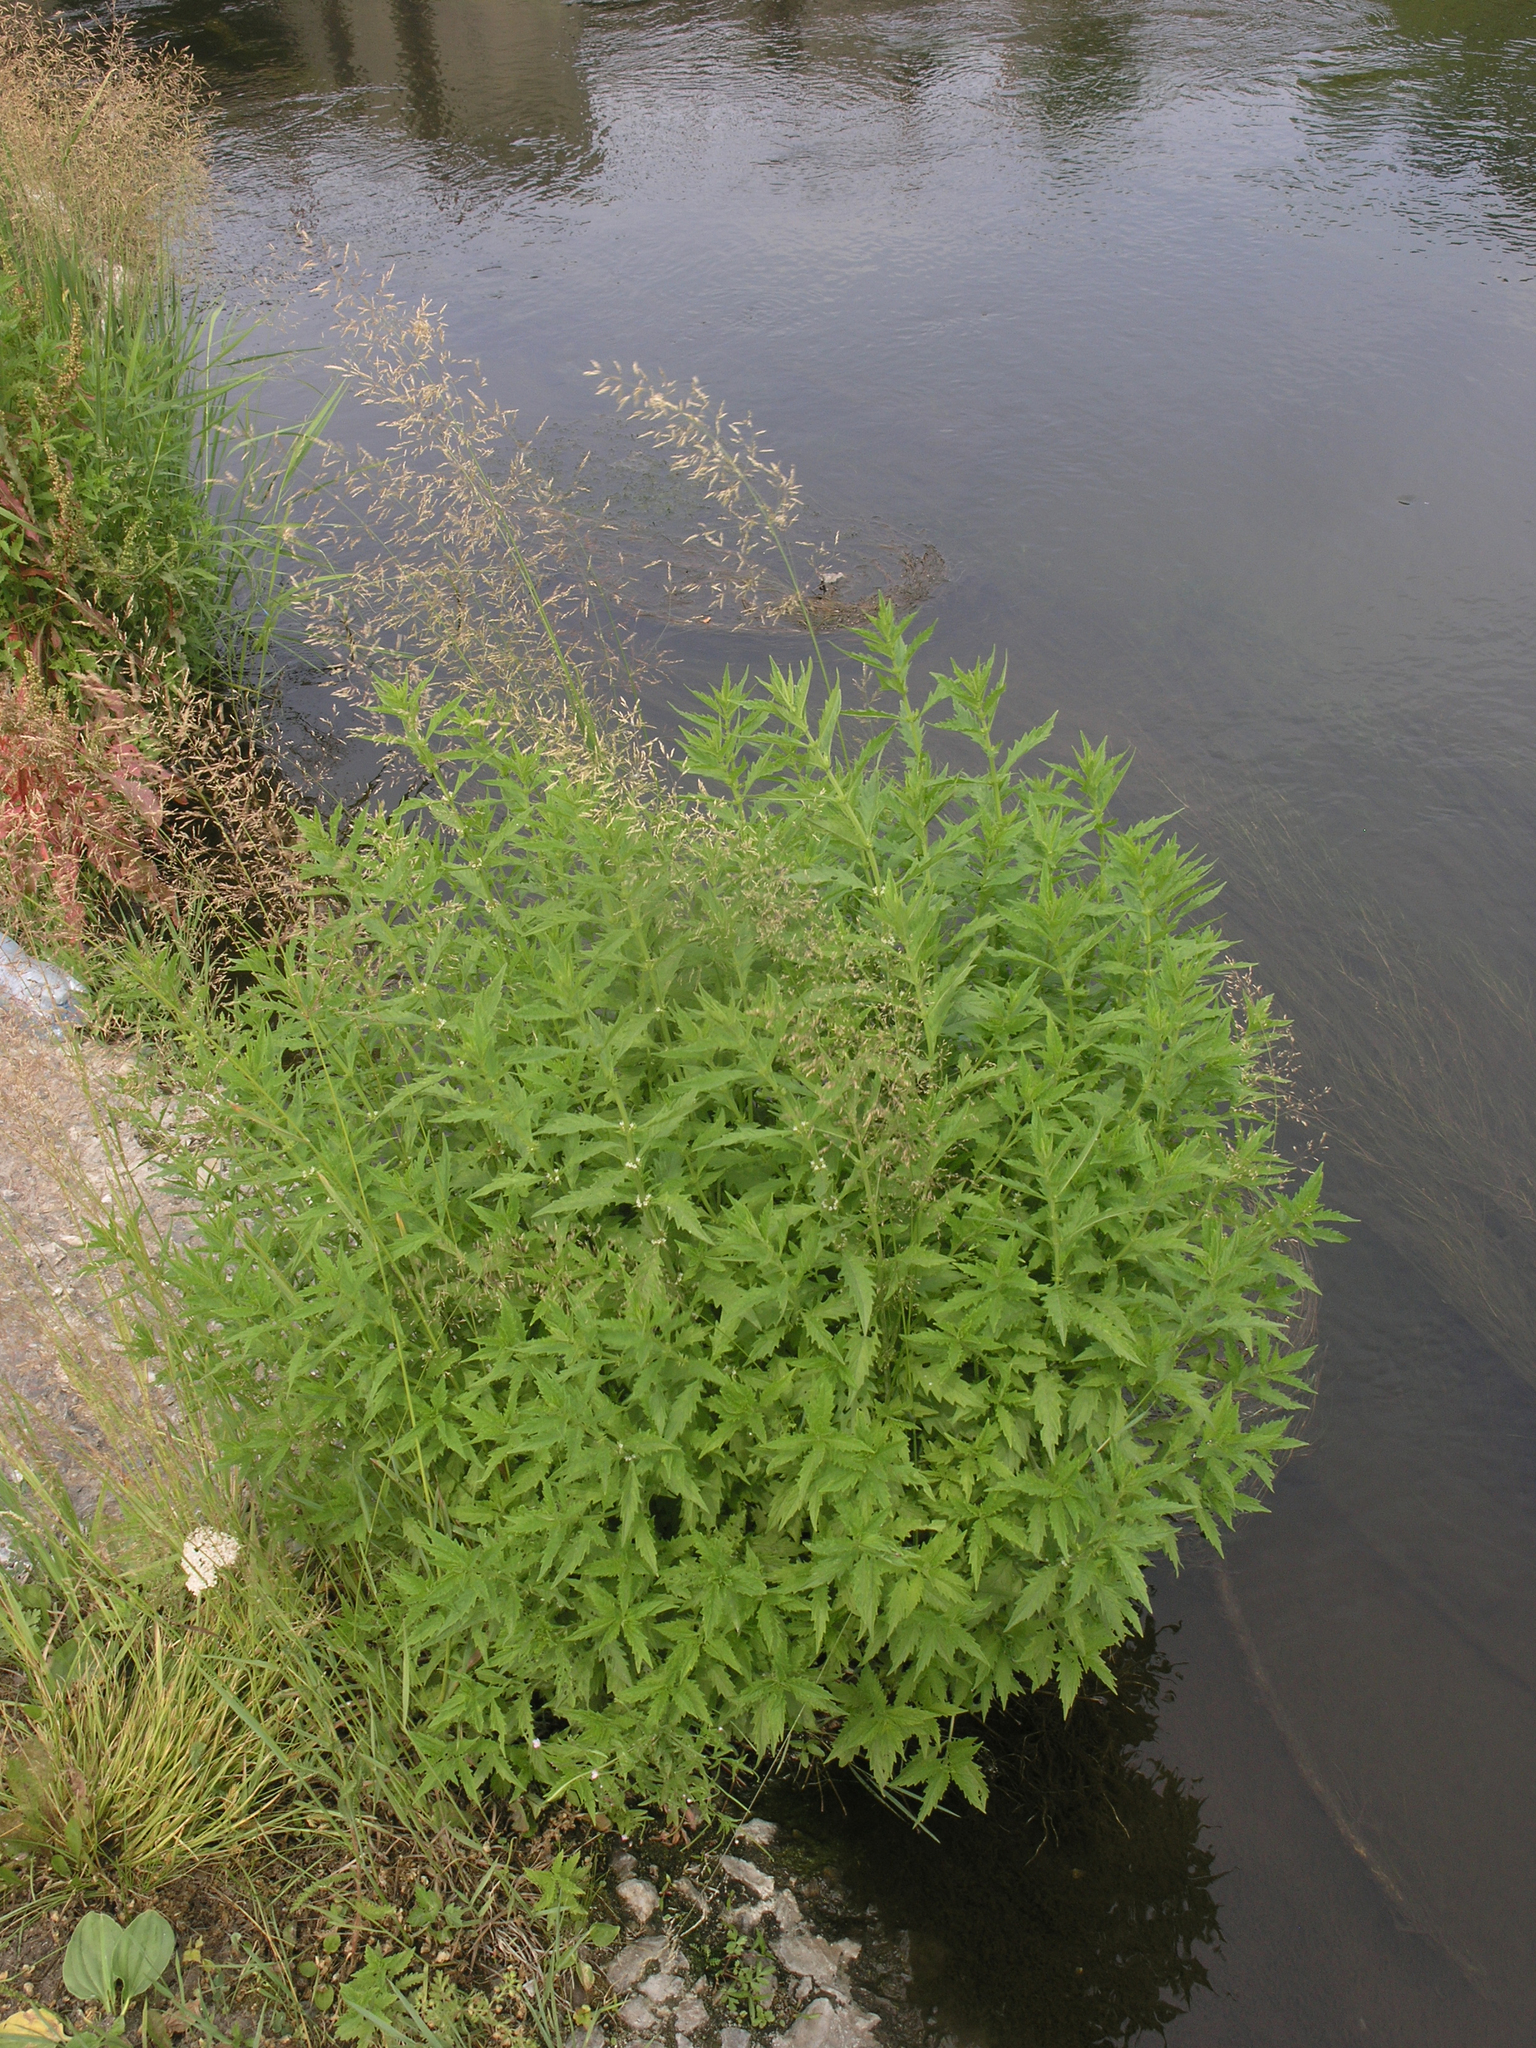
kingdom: Plantae
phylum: Tracheophyta
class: Magnoliopsida
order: Lamiales
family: Lamiaceae
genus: Lycopus
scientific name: Lycopus europaeus
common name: European bugleweed
